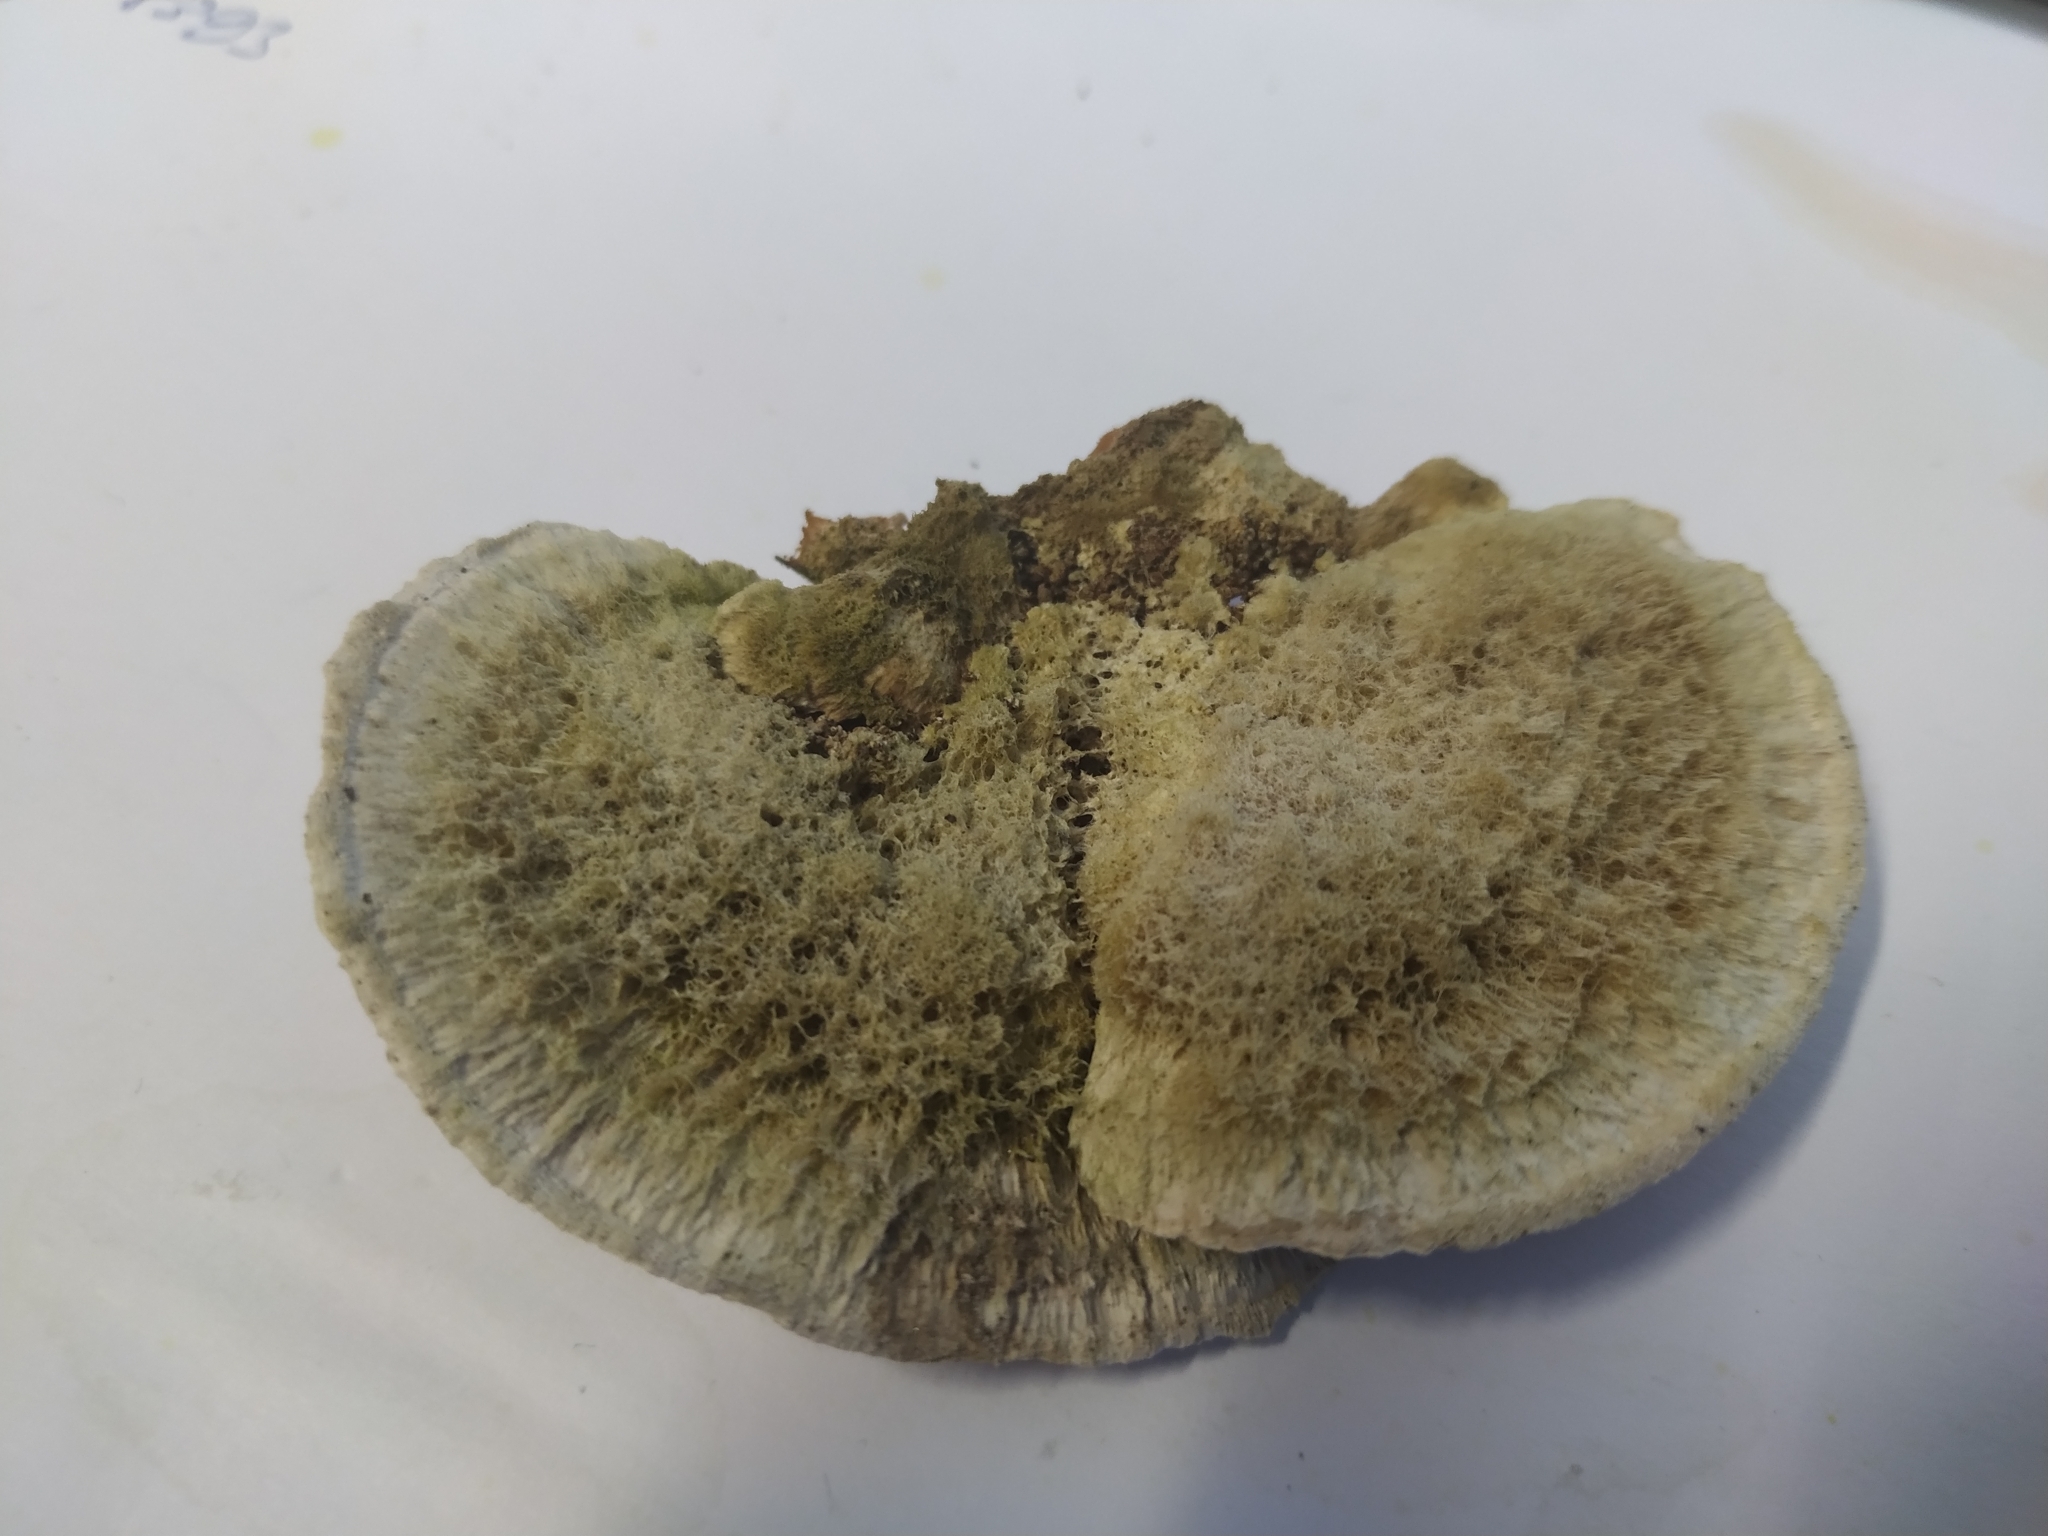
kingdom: Fungi
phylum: Basidiomycota
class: Agaricomycetes
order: Polyporales
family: Polyporaceae
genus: Trametes
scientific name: Trametes hirsuta
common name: Hairy bracket
